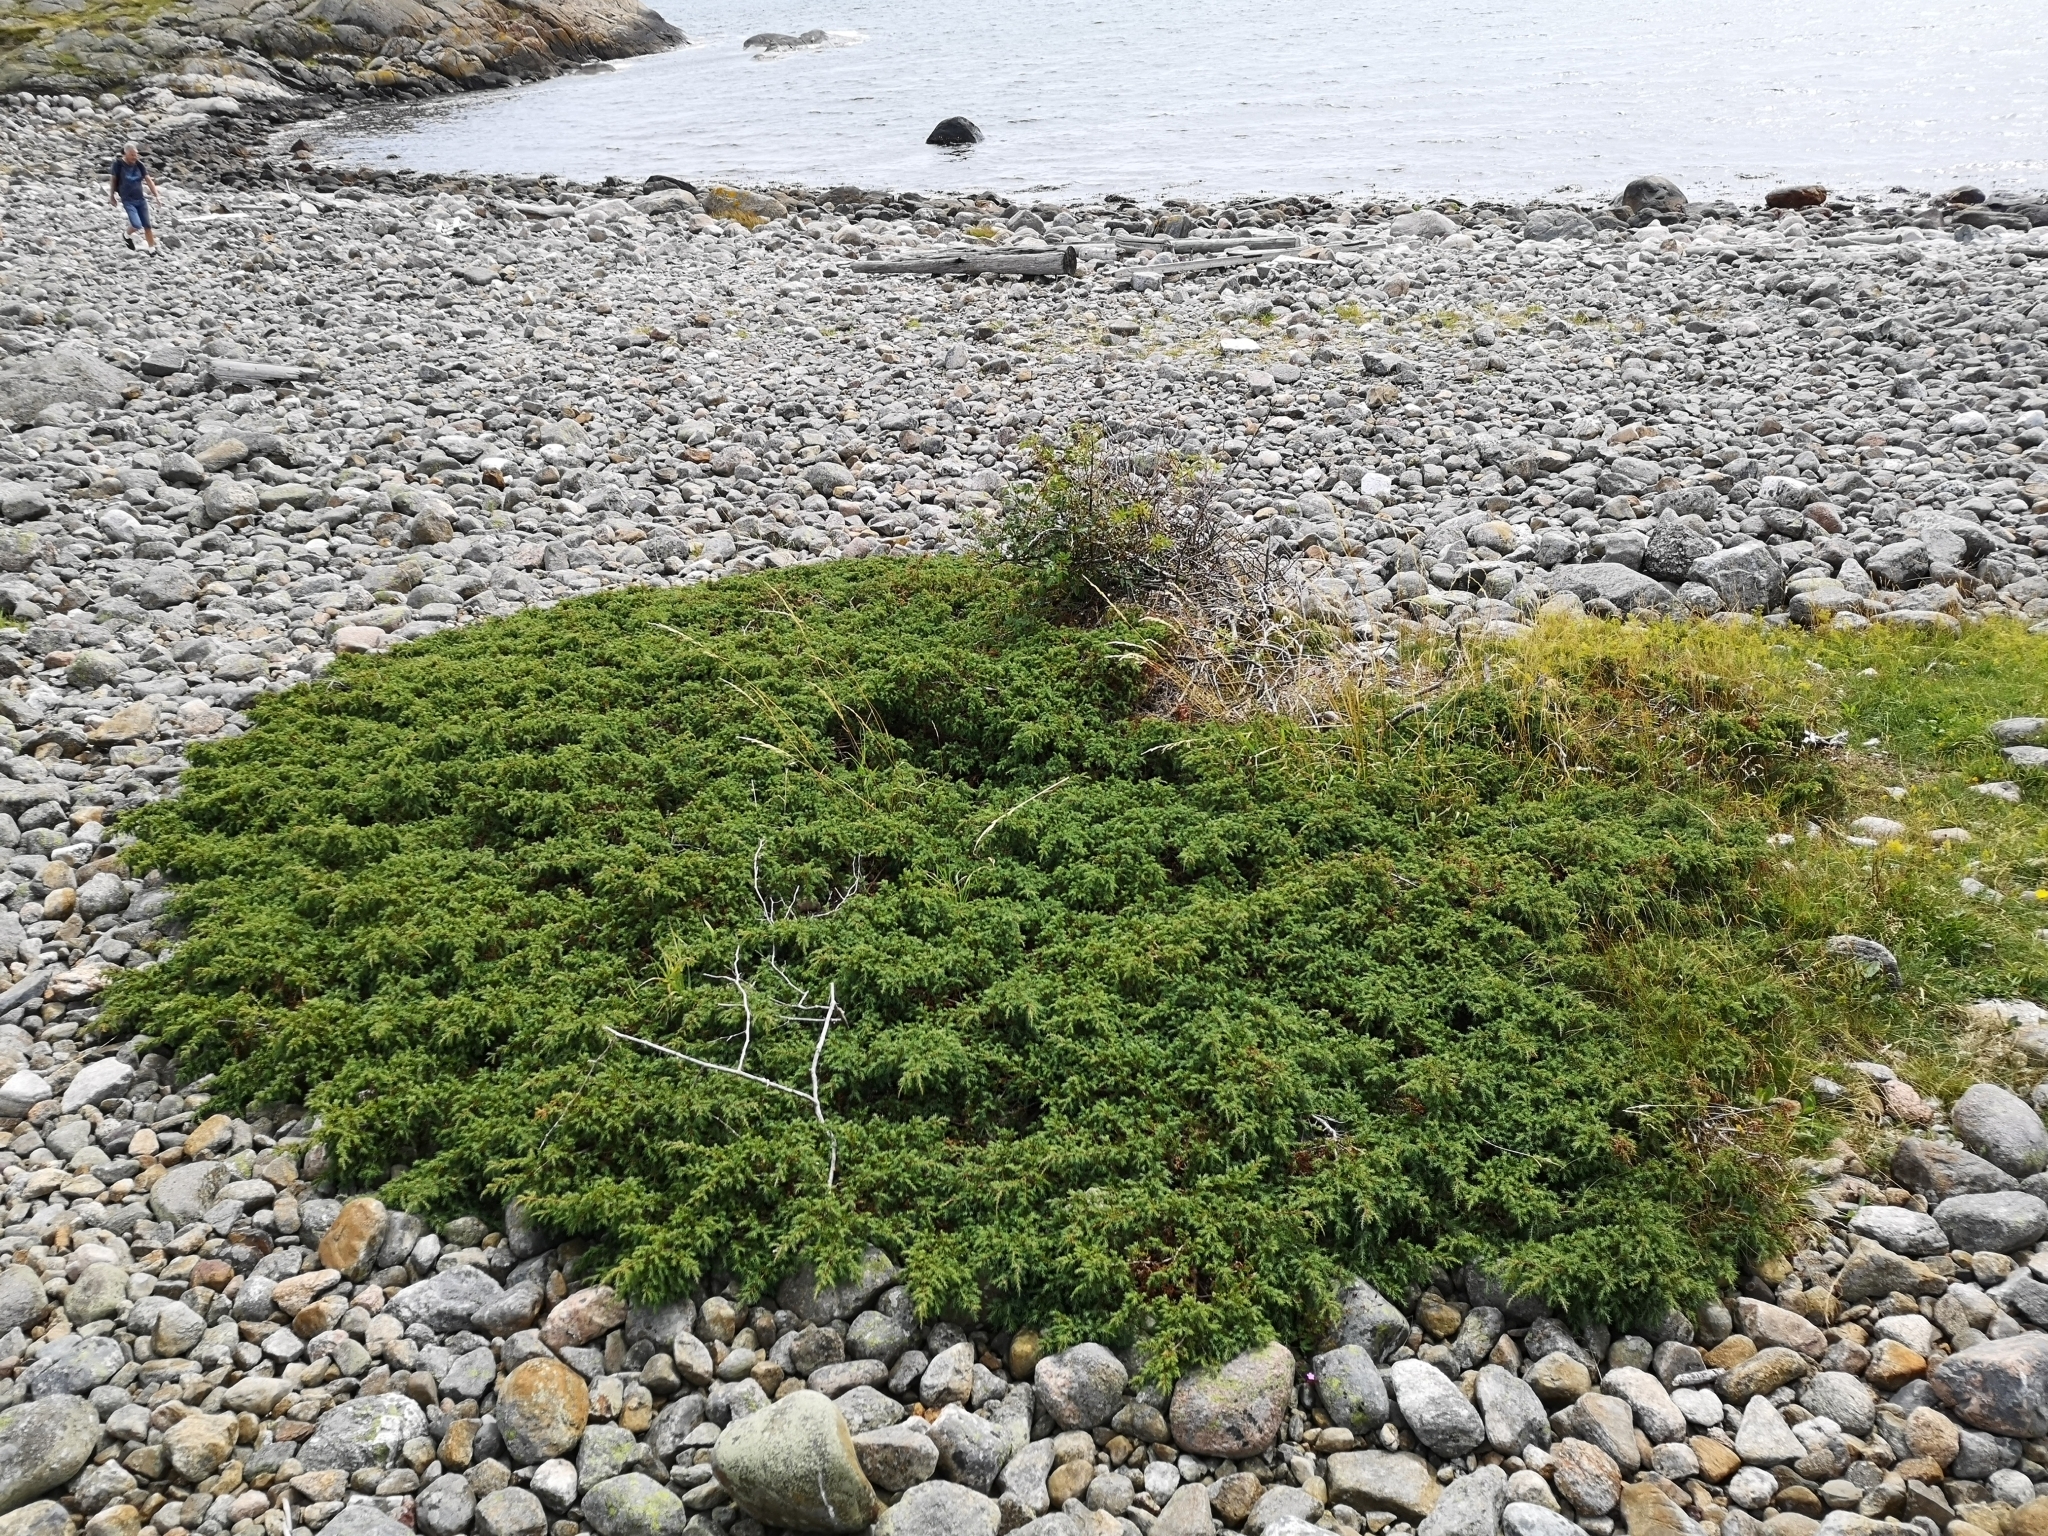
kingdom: Plantae
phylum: Tracheophyta
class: Pinopsida
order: Pinales
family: Cupressaceae
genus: Juniperus
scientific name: Juniperus communis
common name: Common juniper
